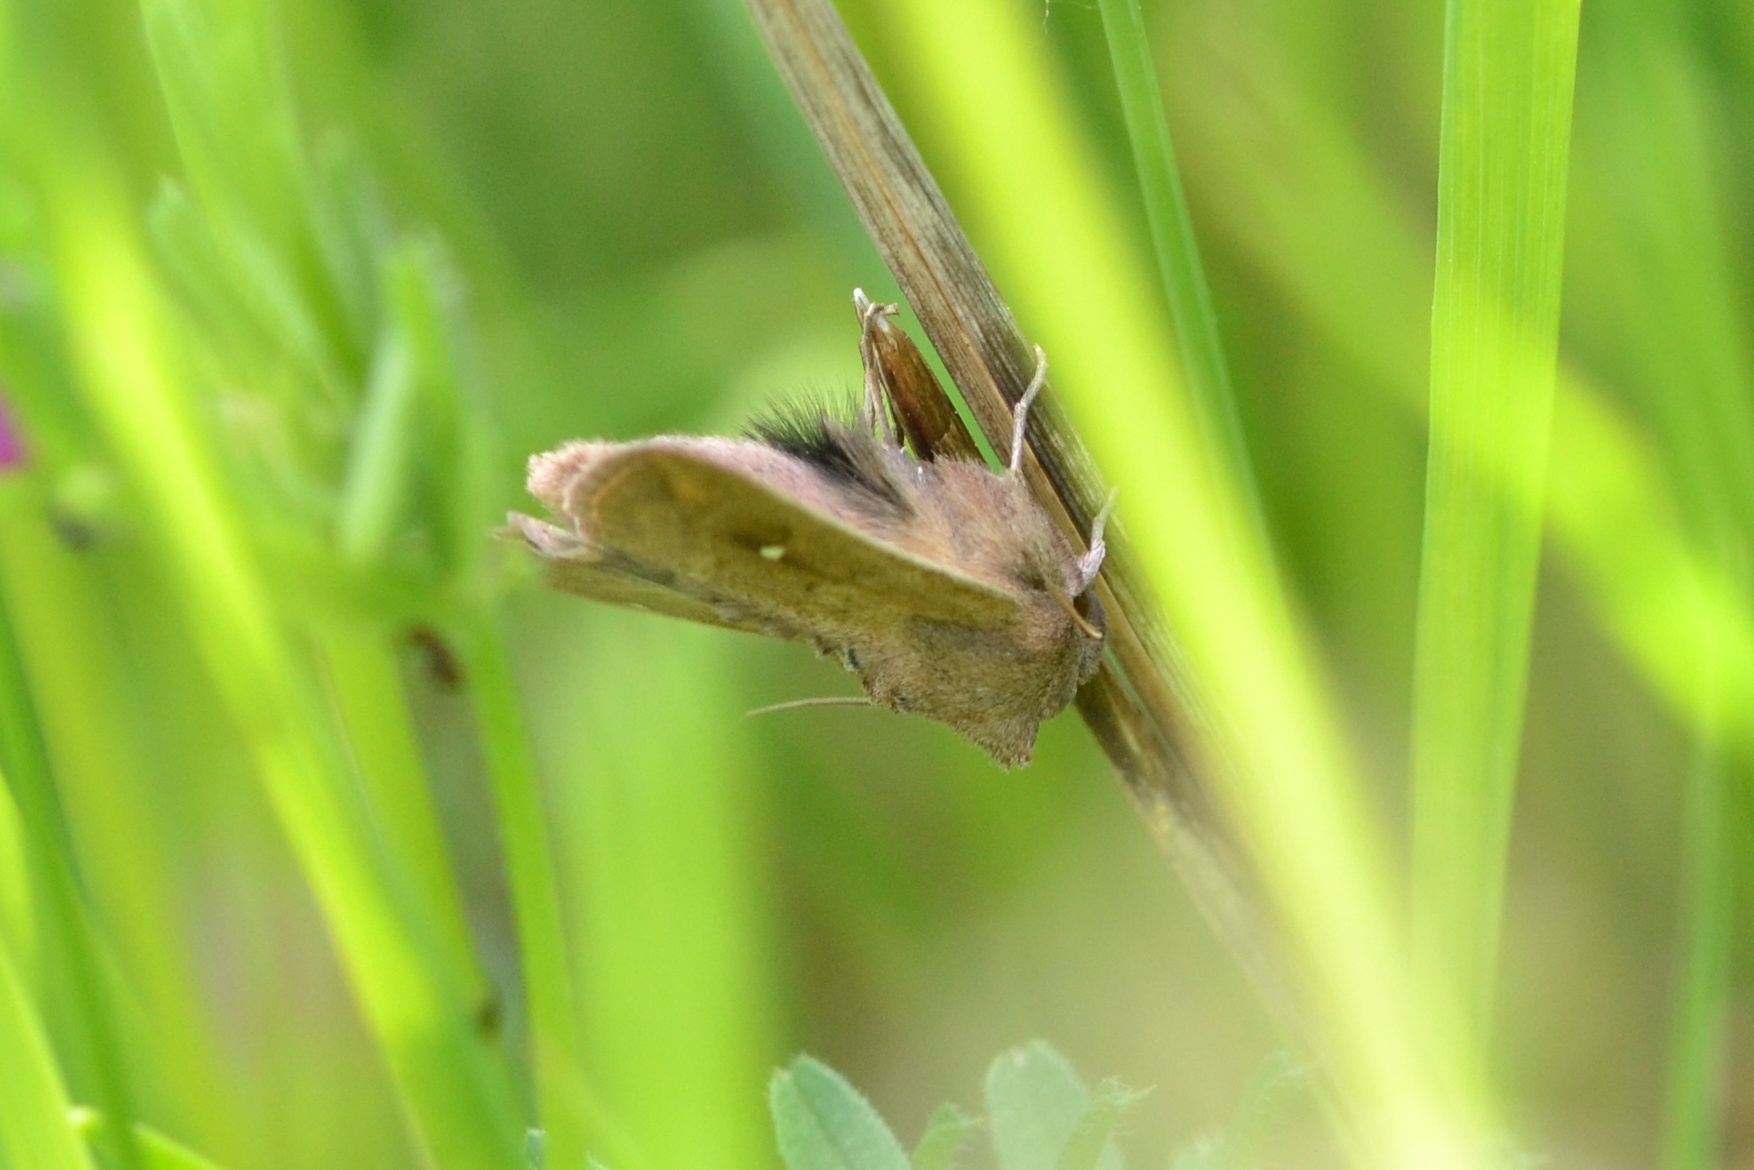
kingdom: Animalia
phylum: Arthropoda
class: Insecta
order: Lepidoptera
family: Noctuidae
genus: Mythimna
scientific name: Mythimna albipuncta
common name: White-point
